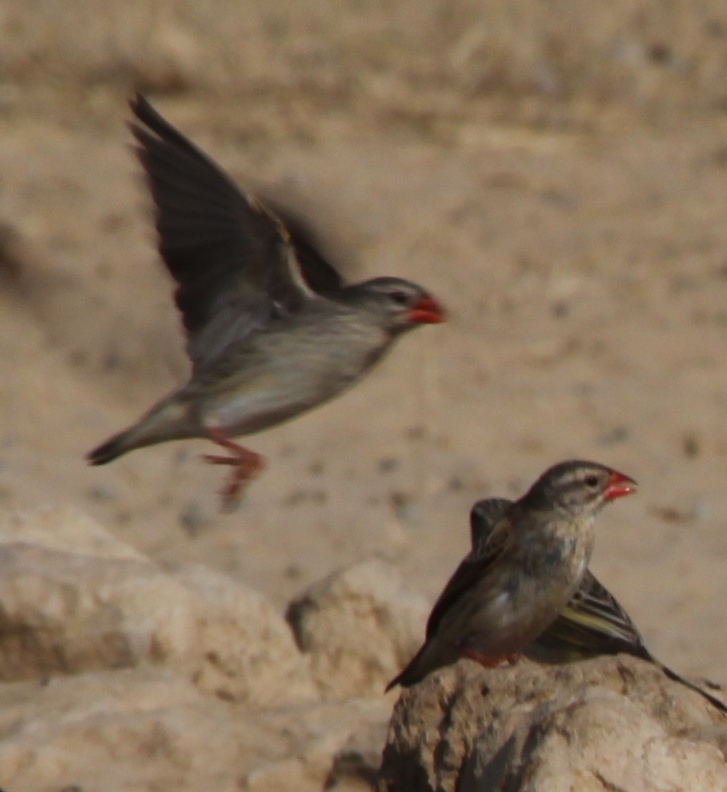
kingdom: Animalia
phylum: Chordata
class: Aves
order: Passeriformes
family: Viduidae
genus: Vidua
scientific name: Vidua regia
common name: Shaft-tailed whydah
